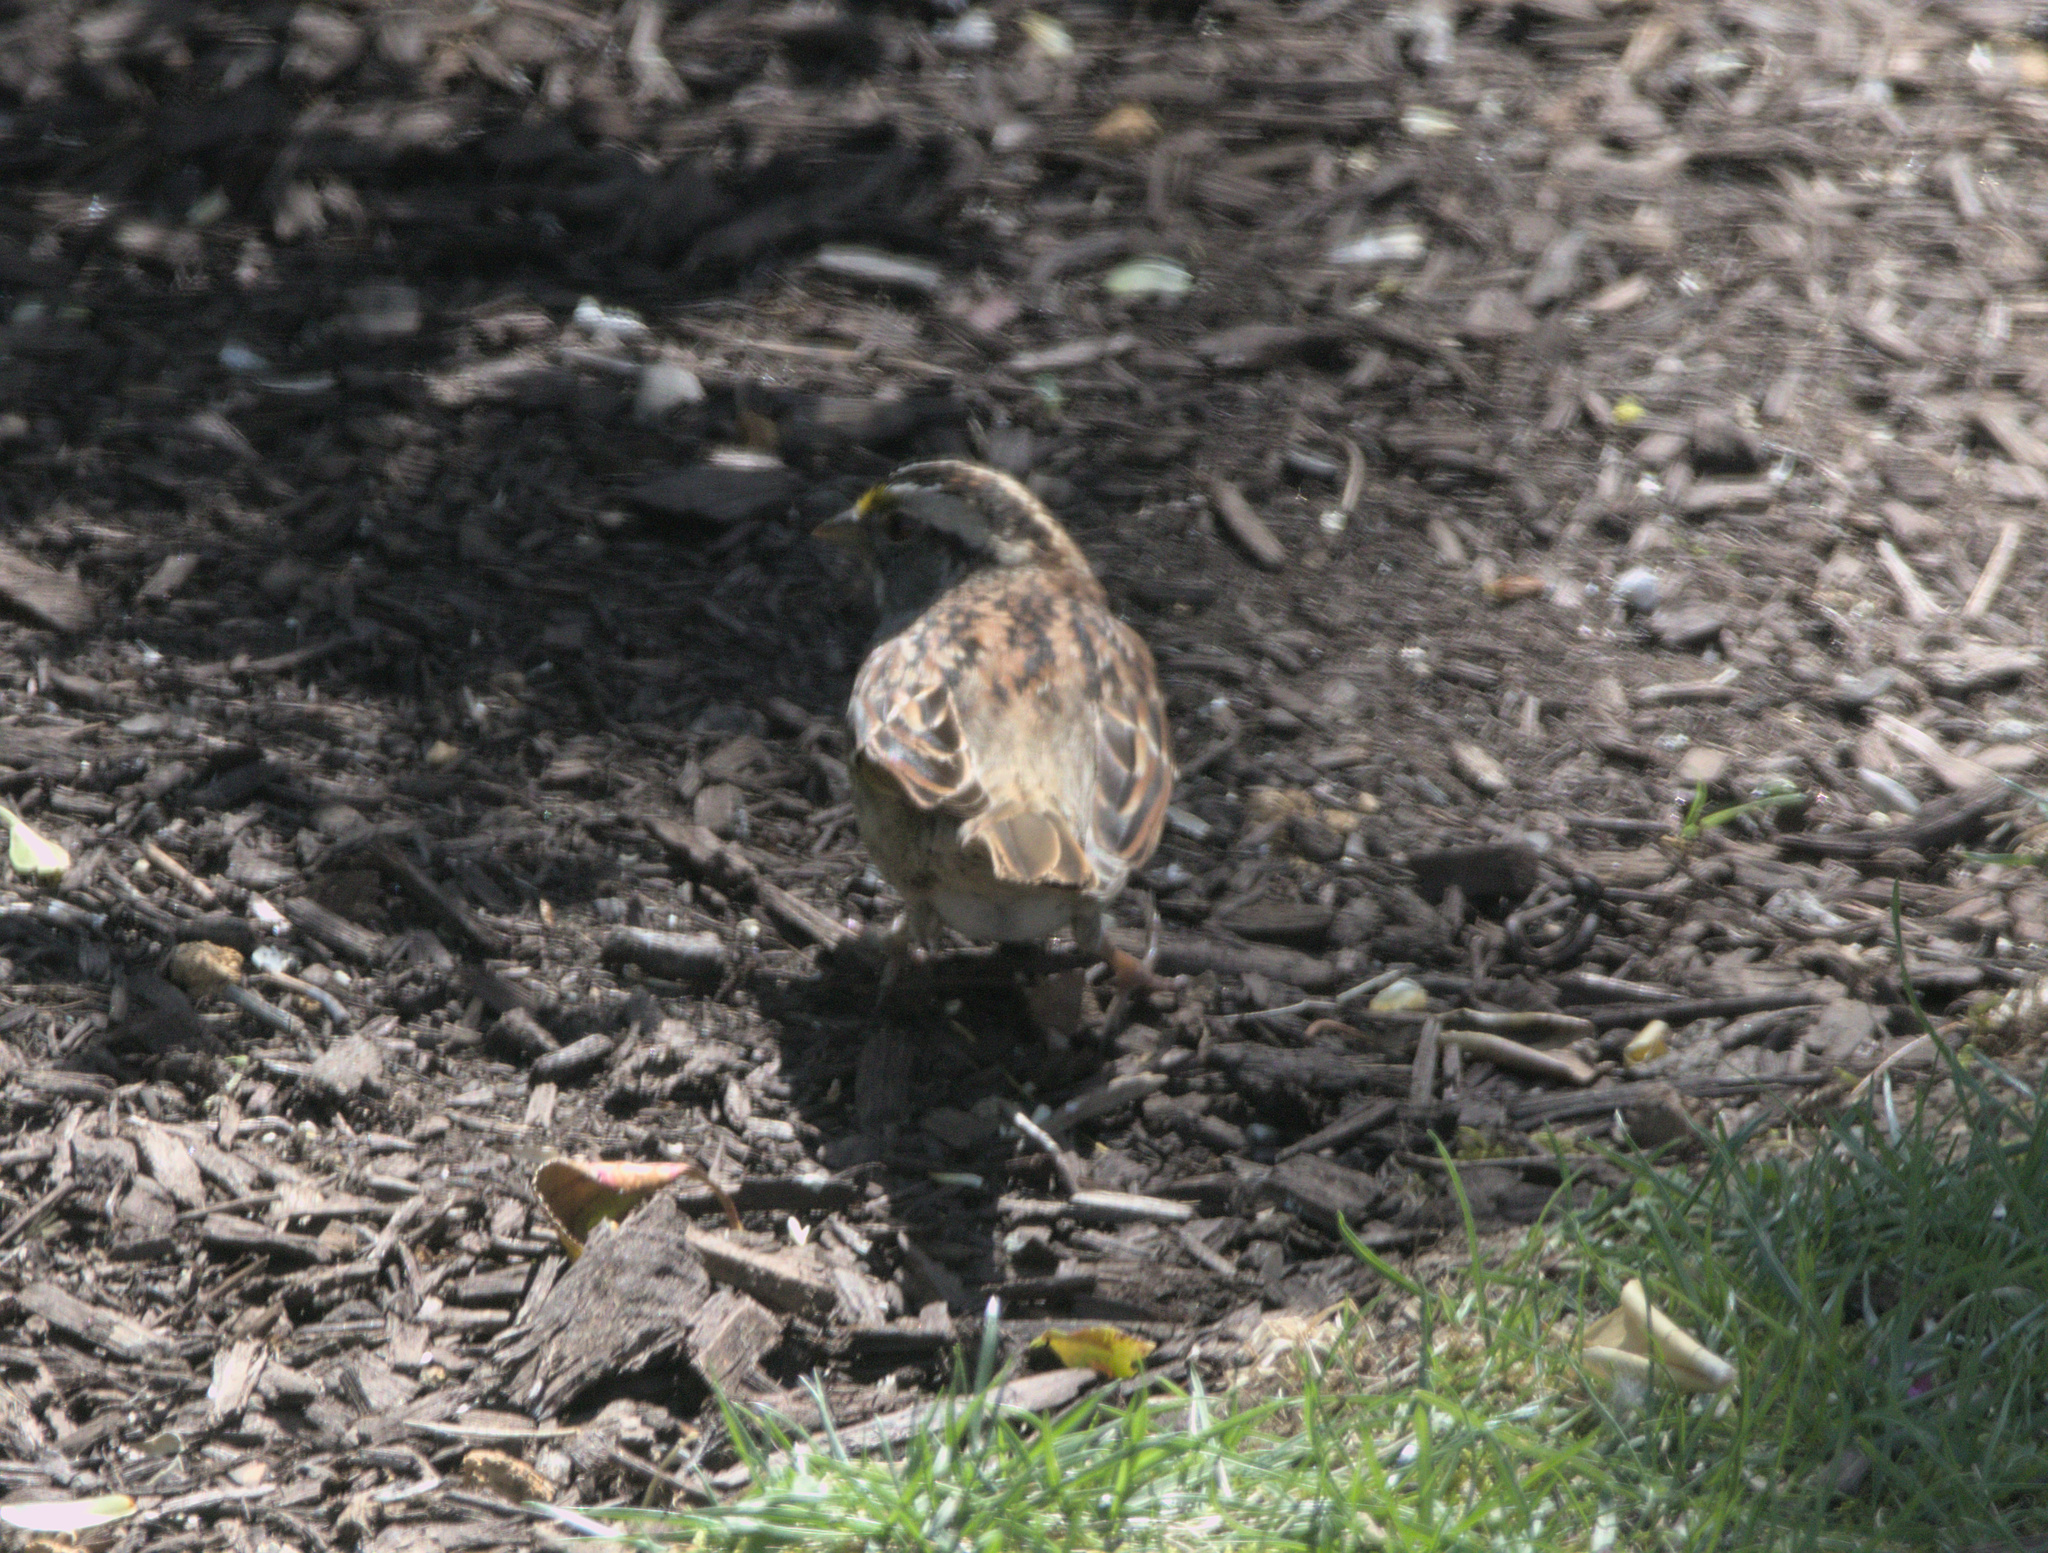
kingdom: Animalia
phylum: Chordata
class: Aves
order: Passeriformes
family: Passerellidae
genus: Zonotrichia
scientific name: Zonotrichia albicollis
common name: White-throated sparrow
